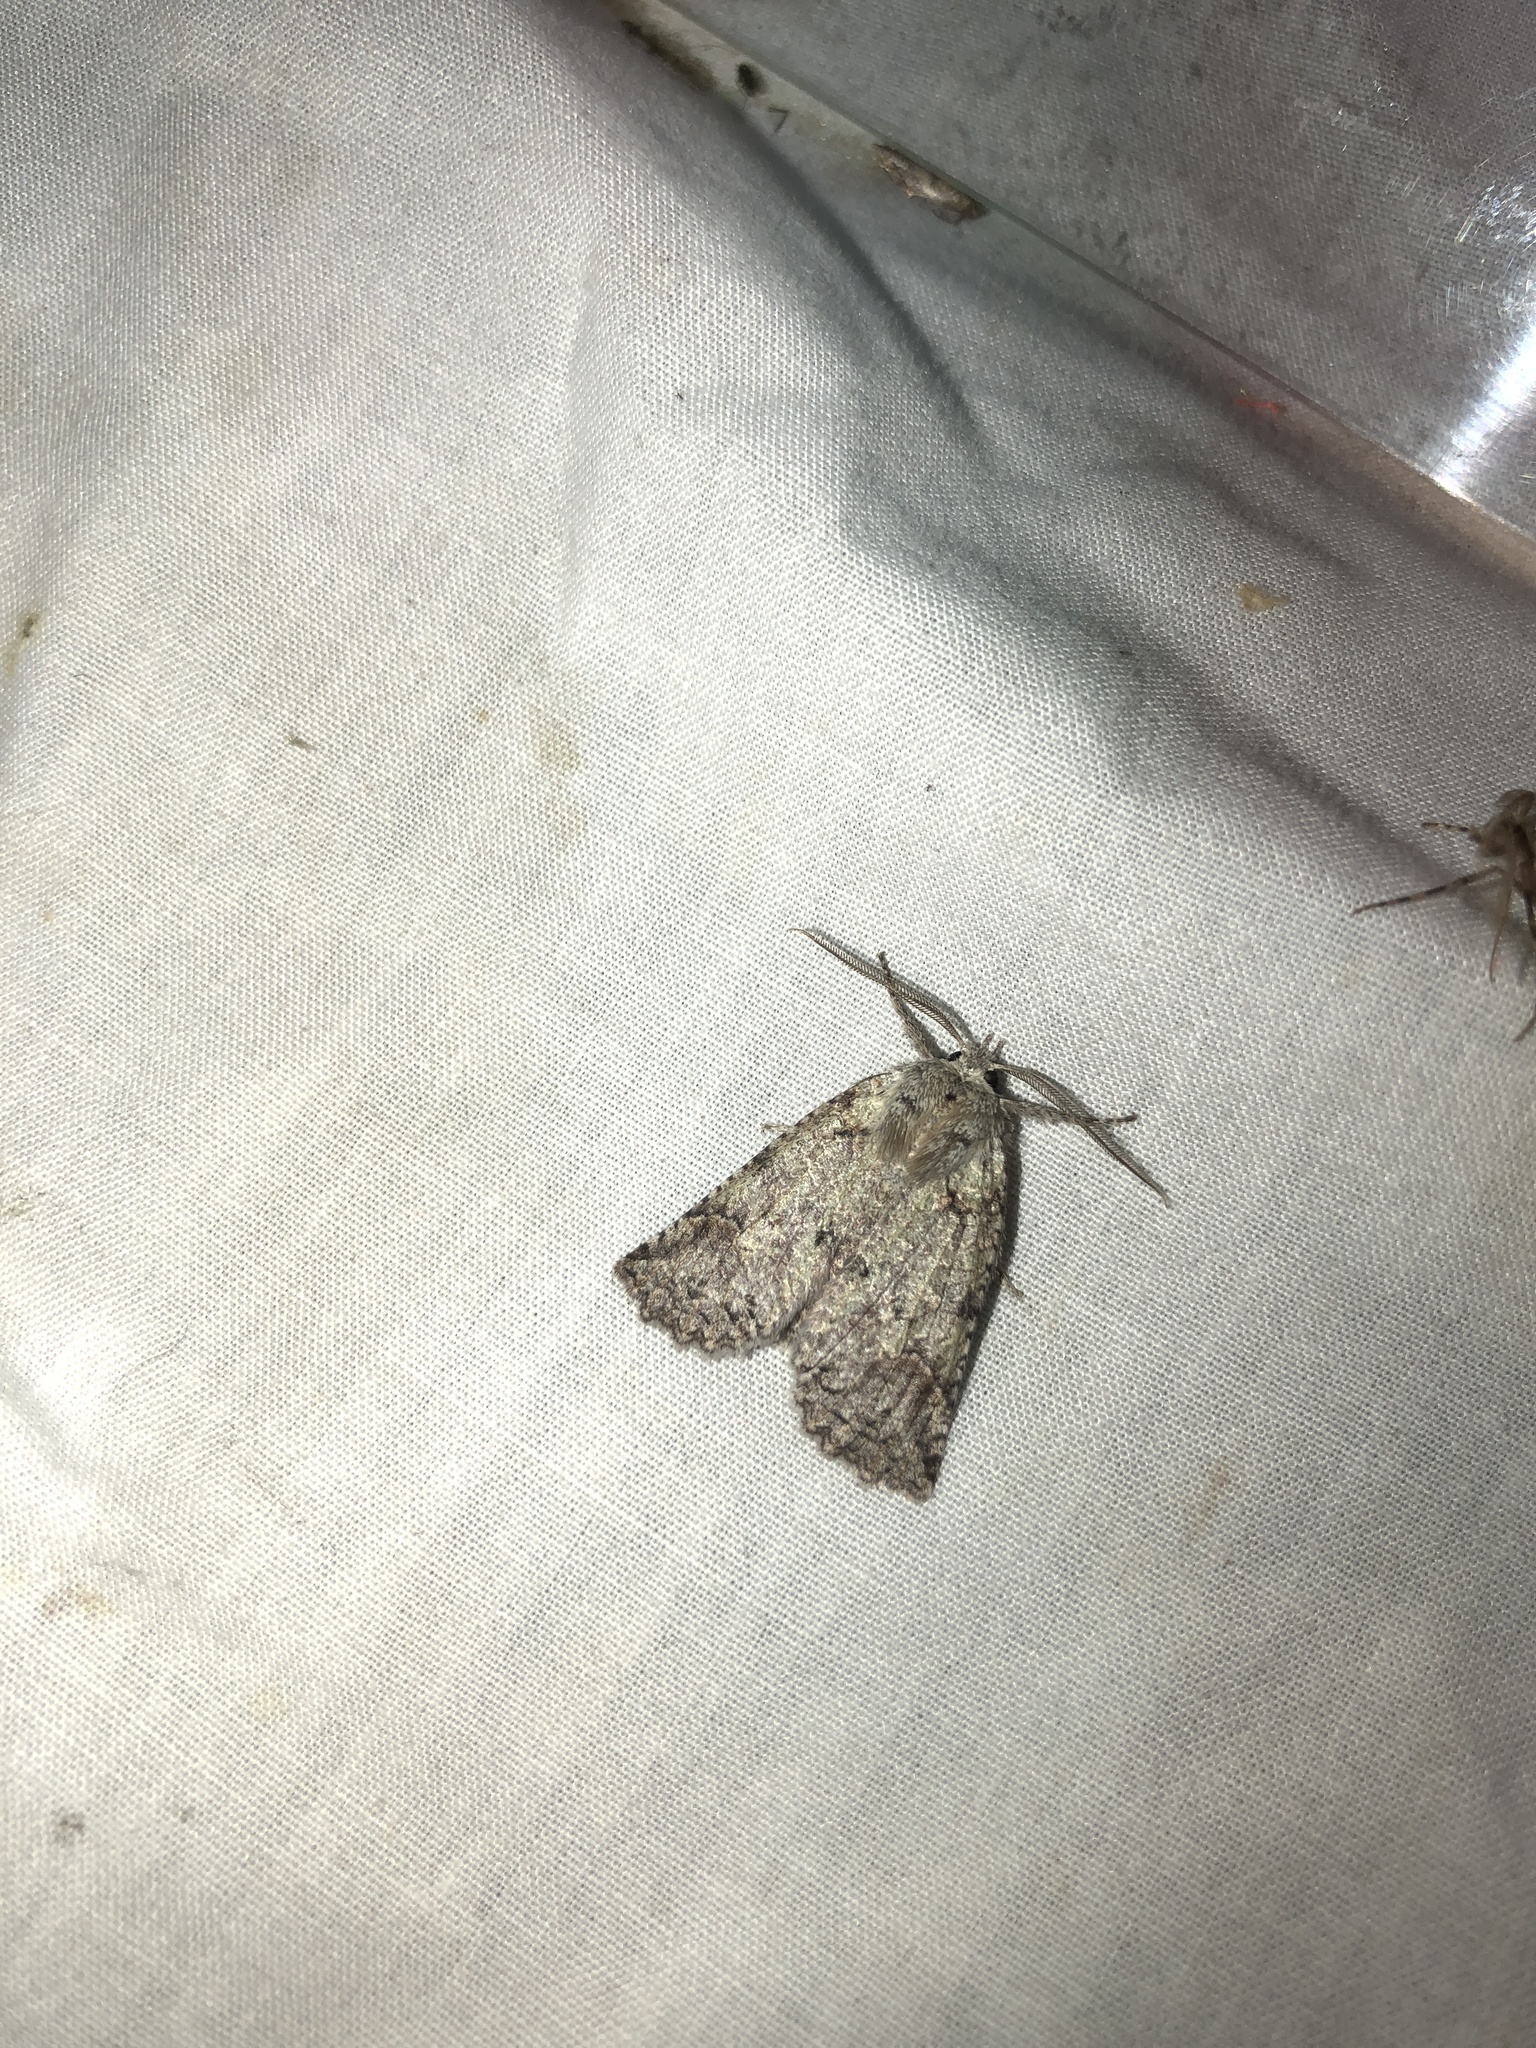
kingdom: Animalia
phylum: Arthropoda
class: Insecta
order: Lepidoptera
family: Geometridae
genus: Declana
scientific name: Declana floccosa
